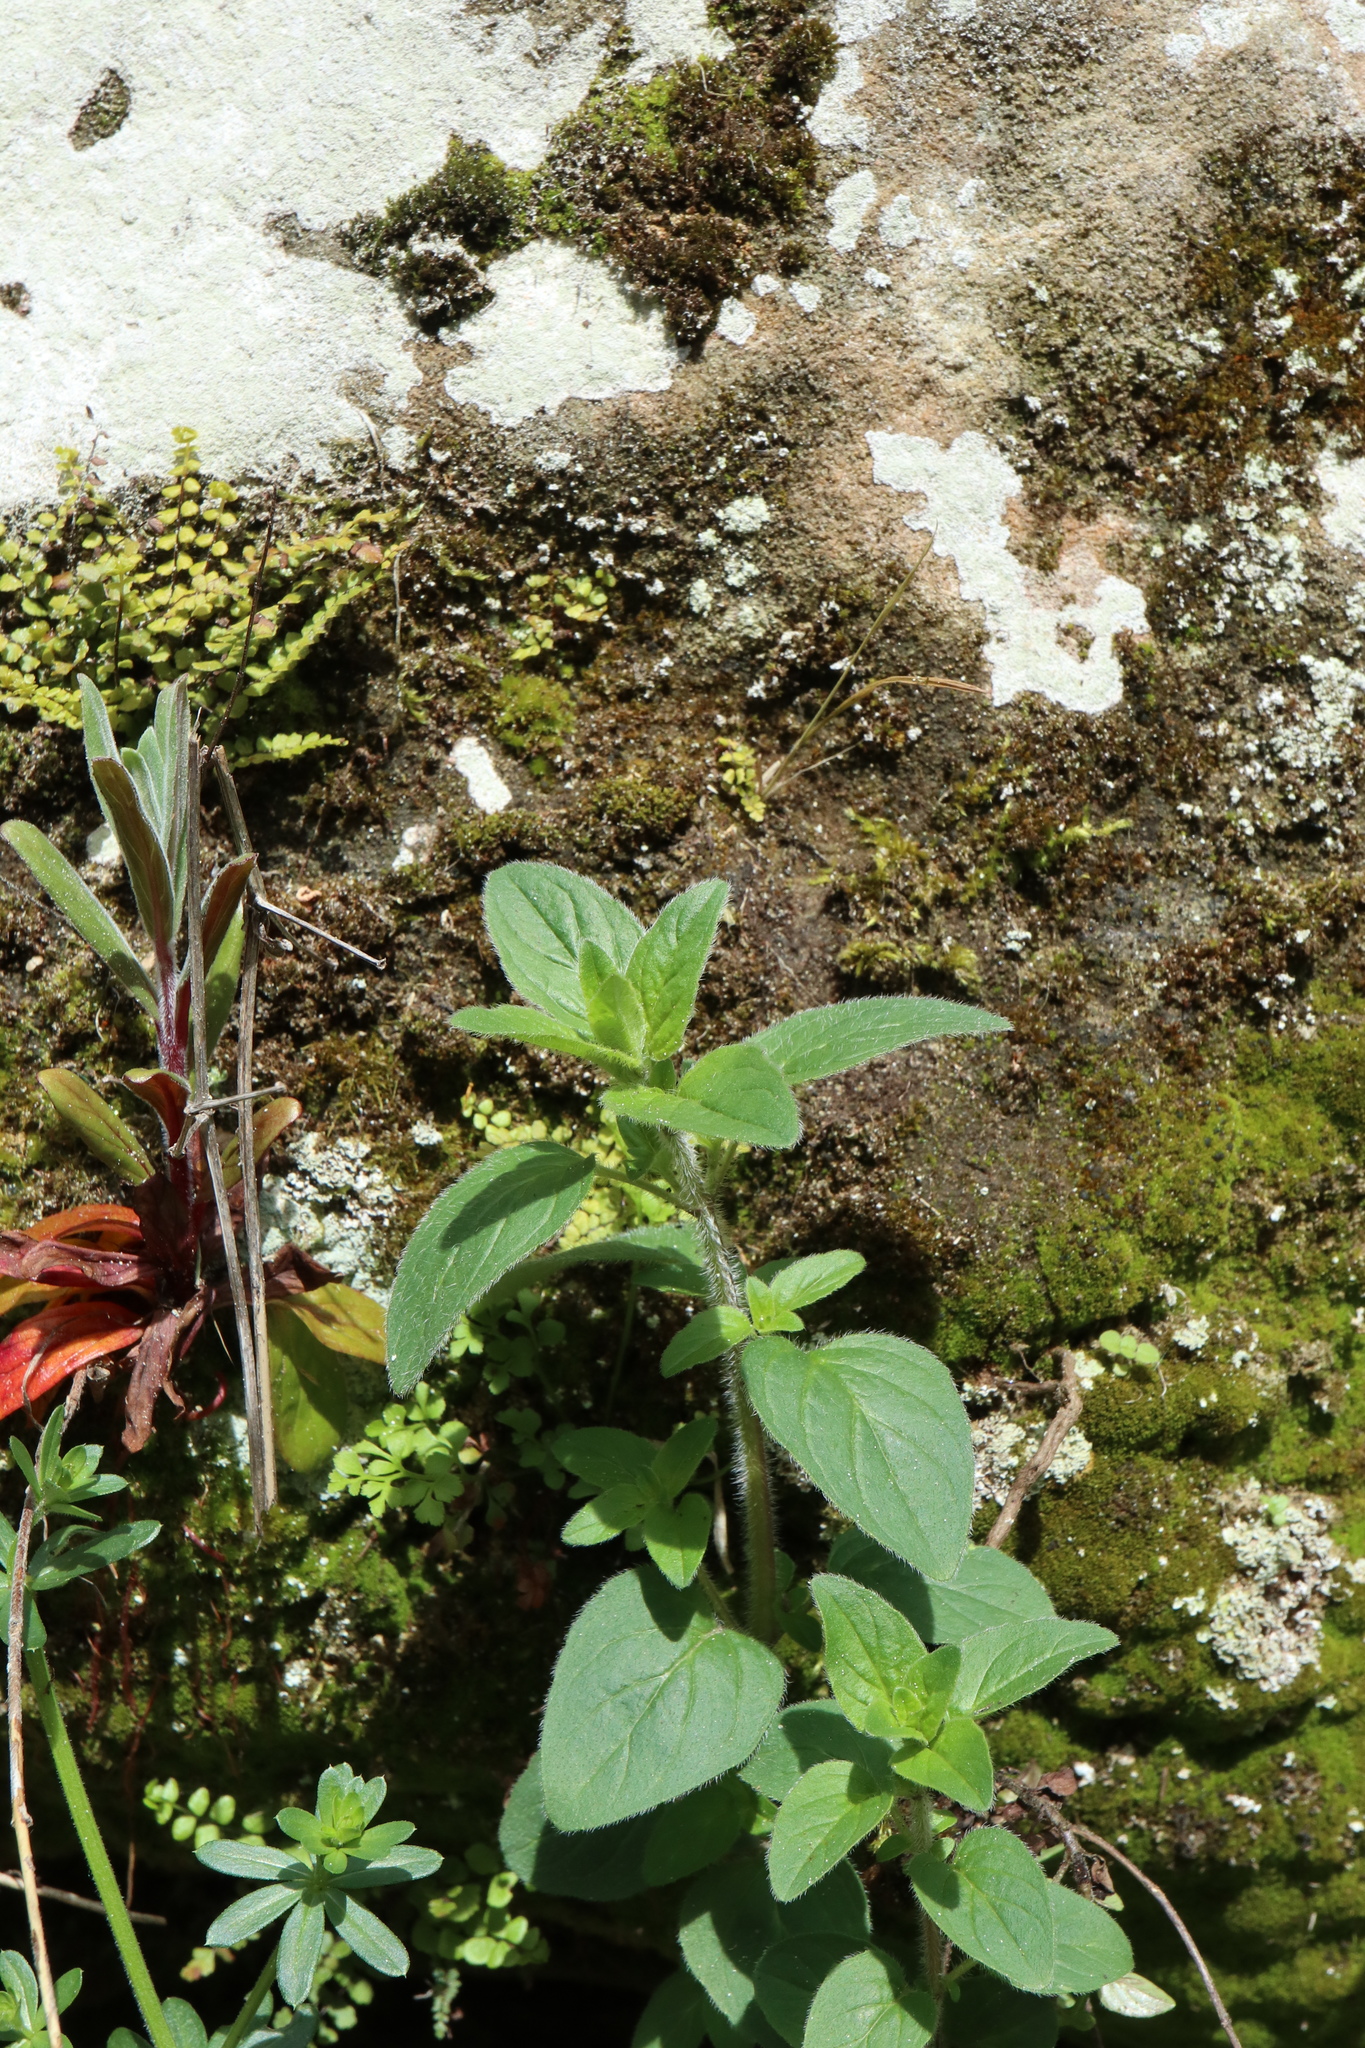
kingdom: Plantae
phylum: Tracheophyta
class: Magnoliopsida
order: Lamiales
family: Lamiaceae
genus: Origanum
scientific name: Origanum vulgare
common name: Wild marjoram
